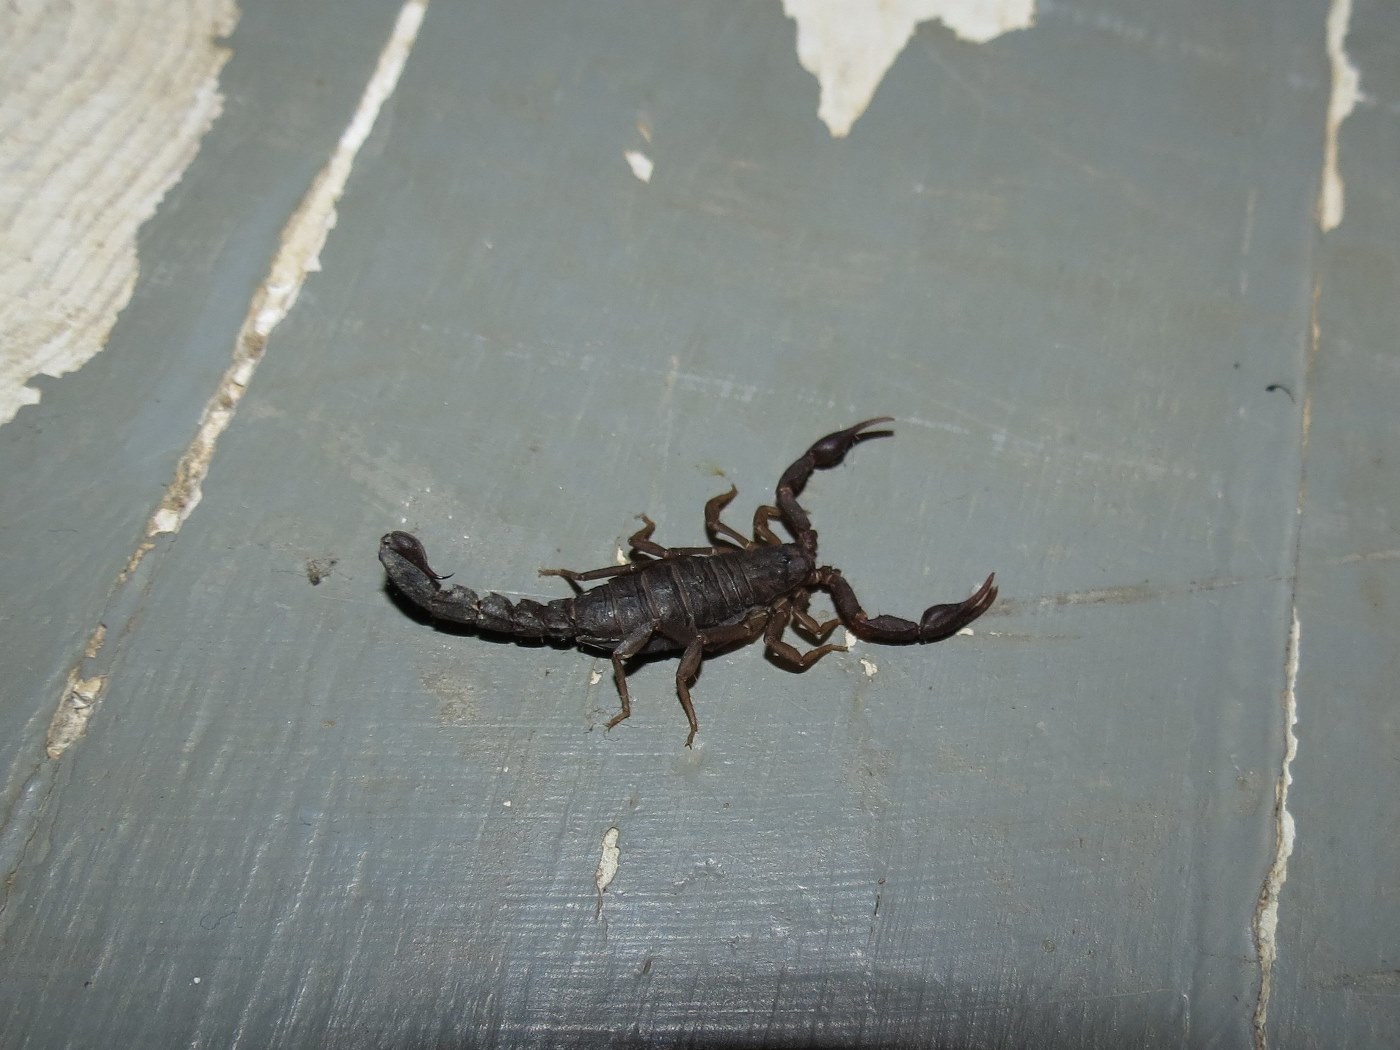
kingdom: Animalia
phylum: Arthropoda
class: Arachnida
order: Scorpiones
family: Vaejovidae
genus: Vaejovis
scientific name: Vaejovis carolinianus
